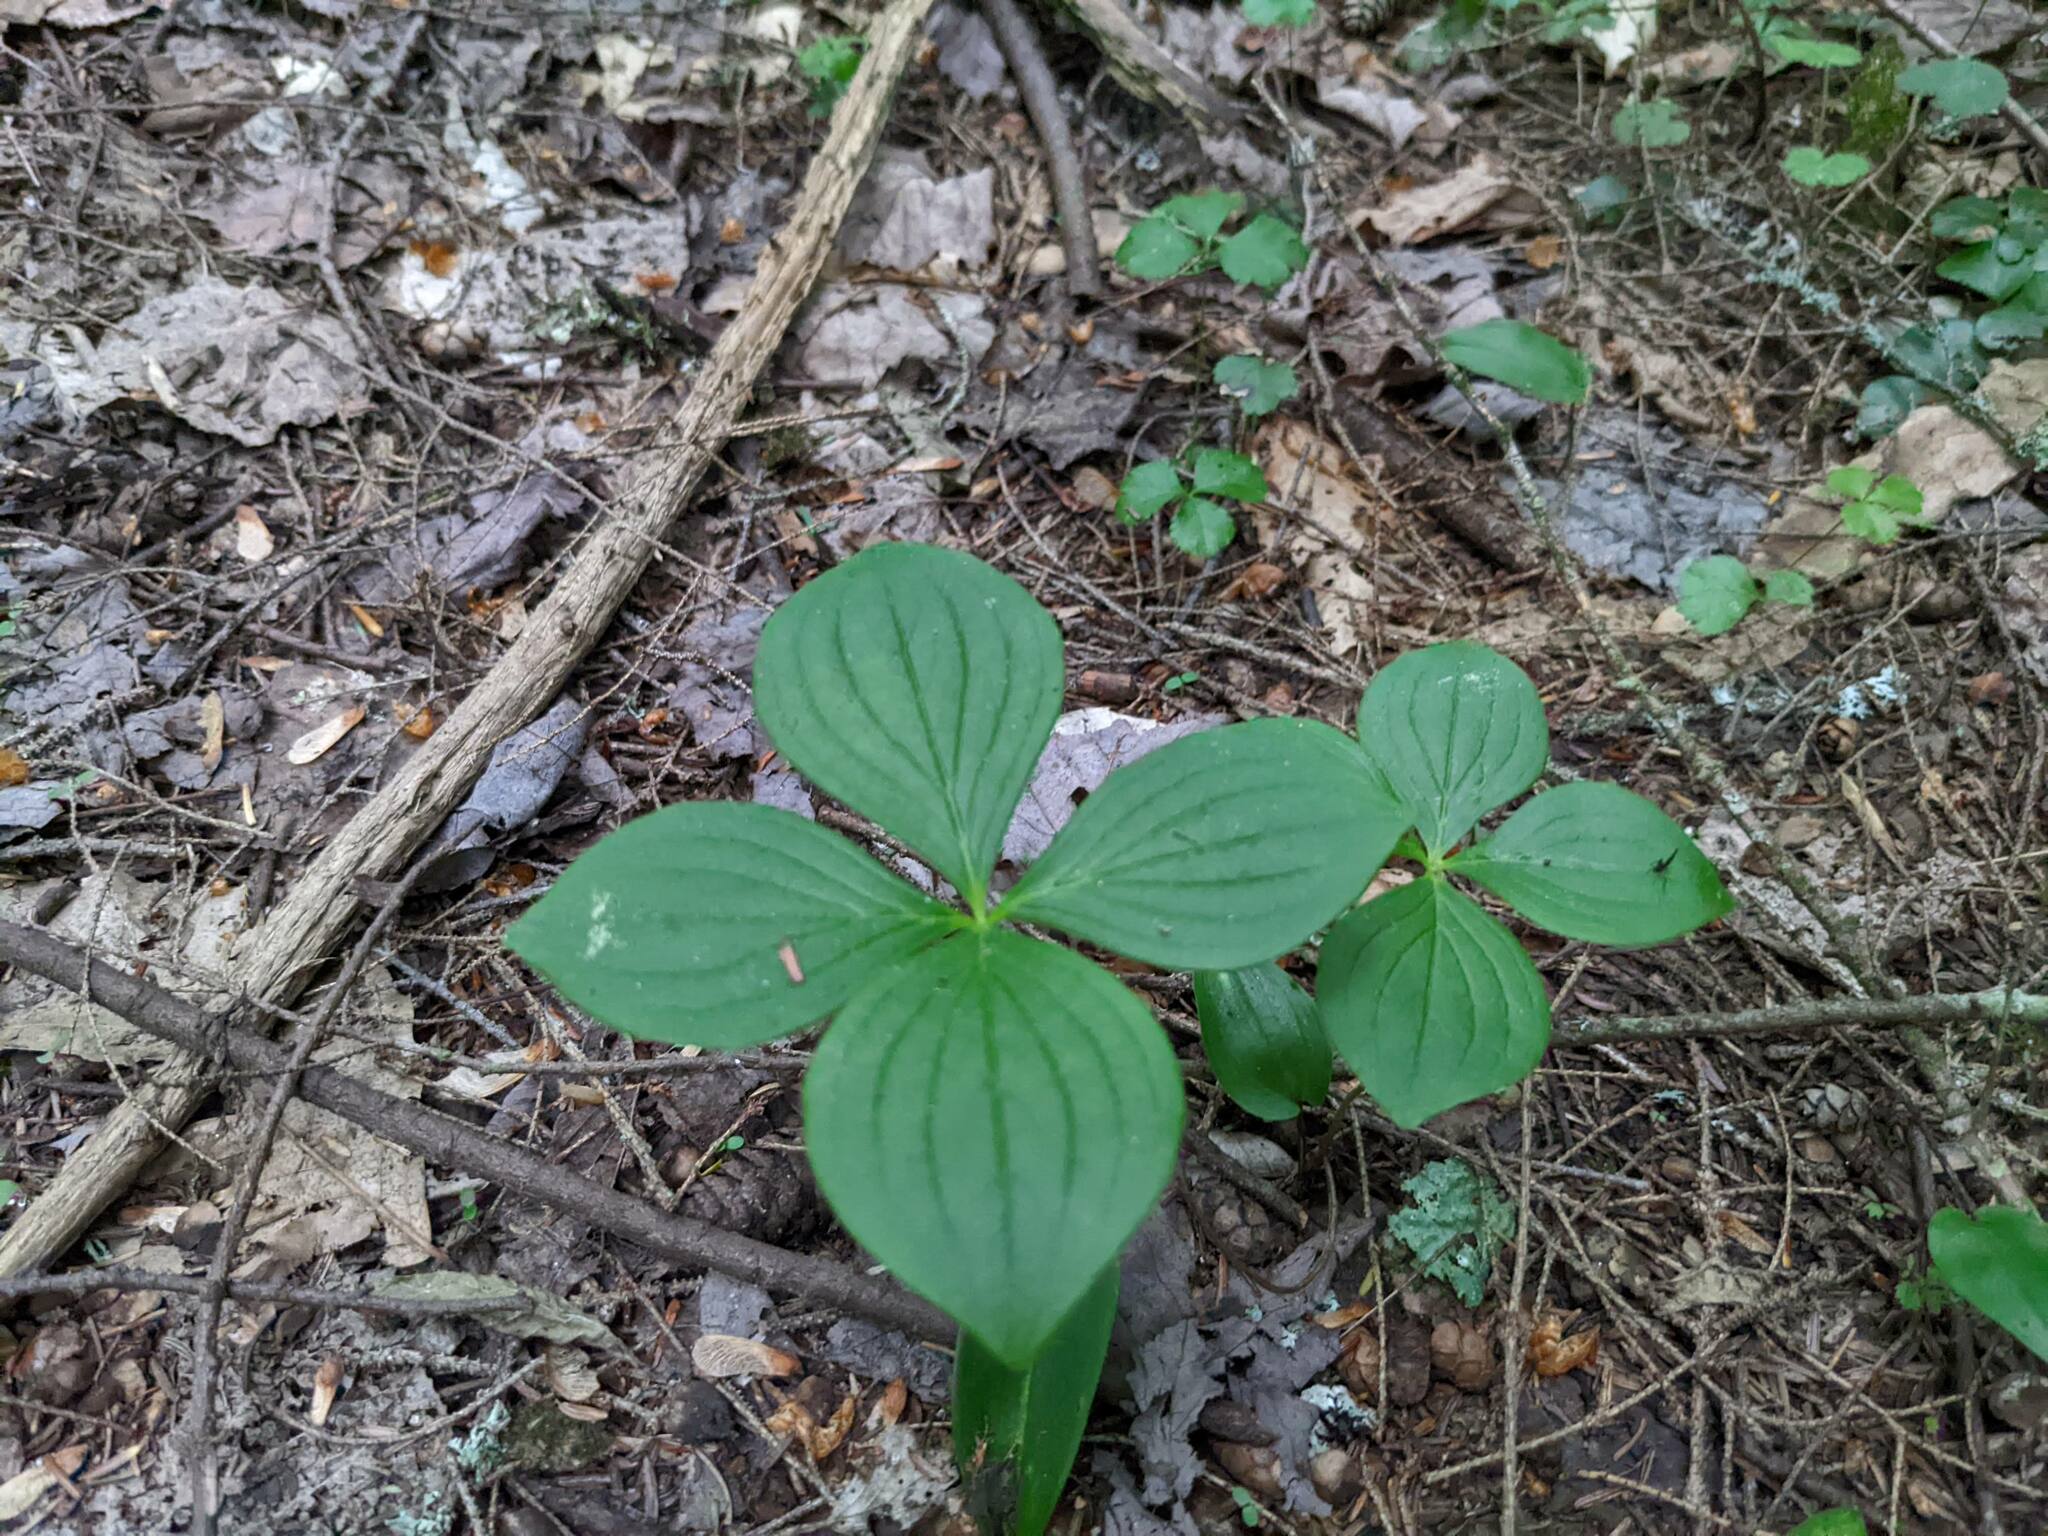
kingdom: Plantae
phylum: Tracheophyta
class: Magnoliopsida
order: Cornales
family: Cornaceae
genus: Cornus
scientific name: Cornus canadensis
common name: Creeping dogwood
